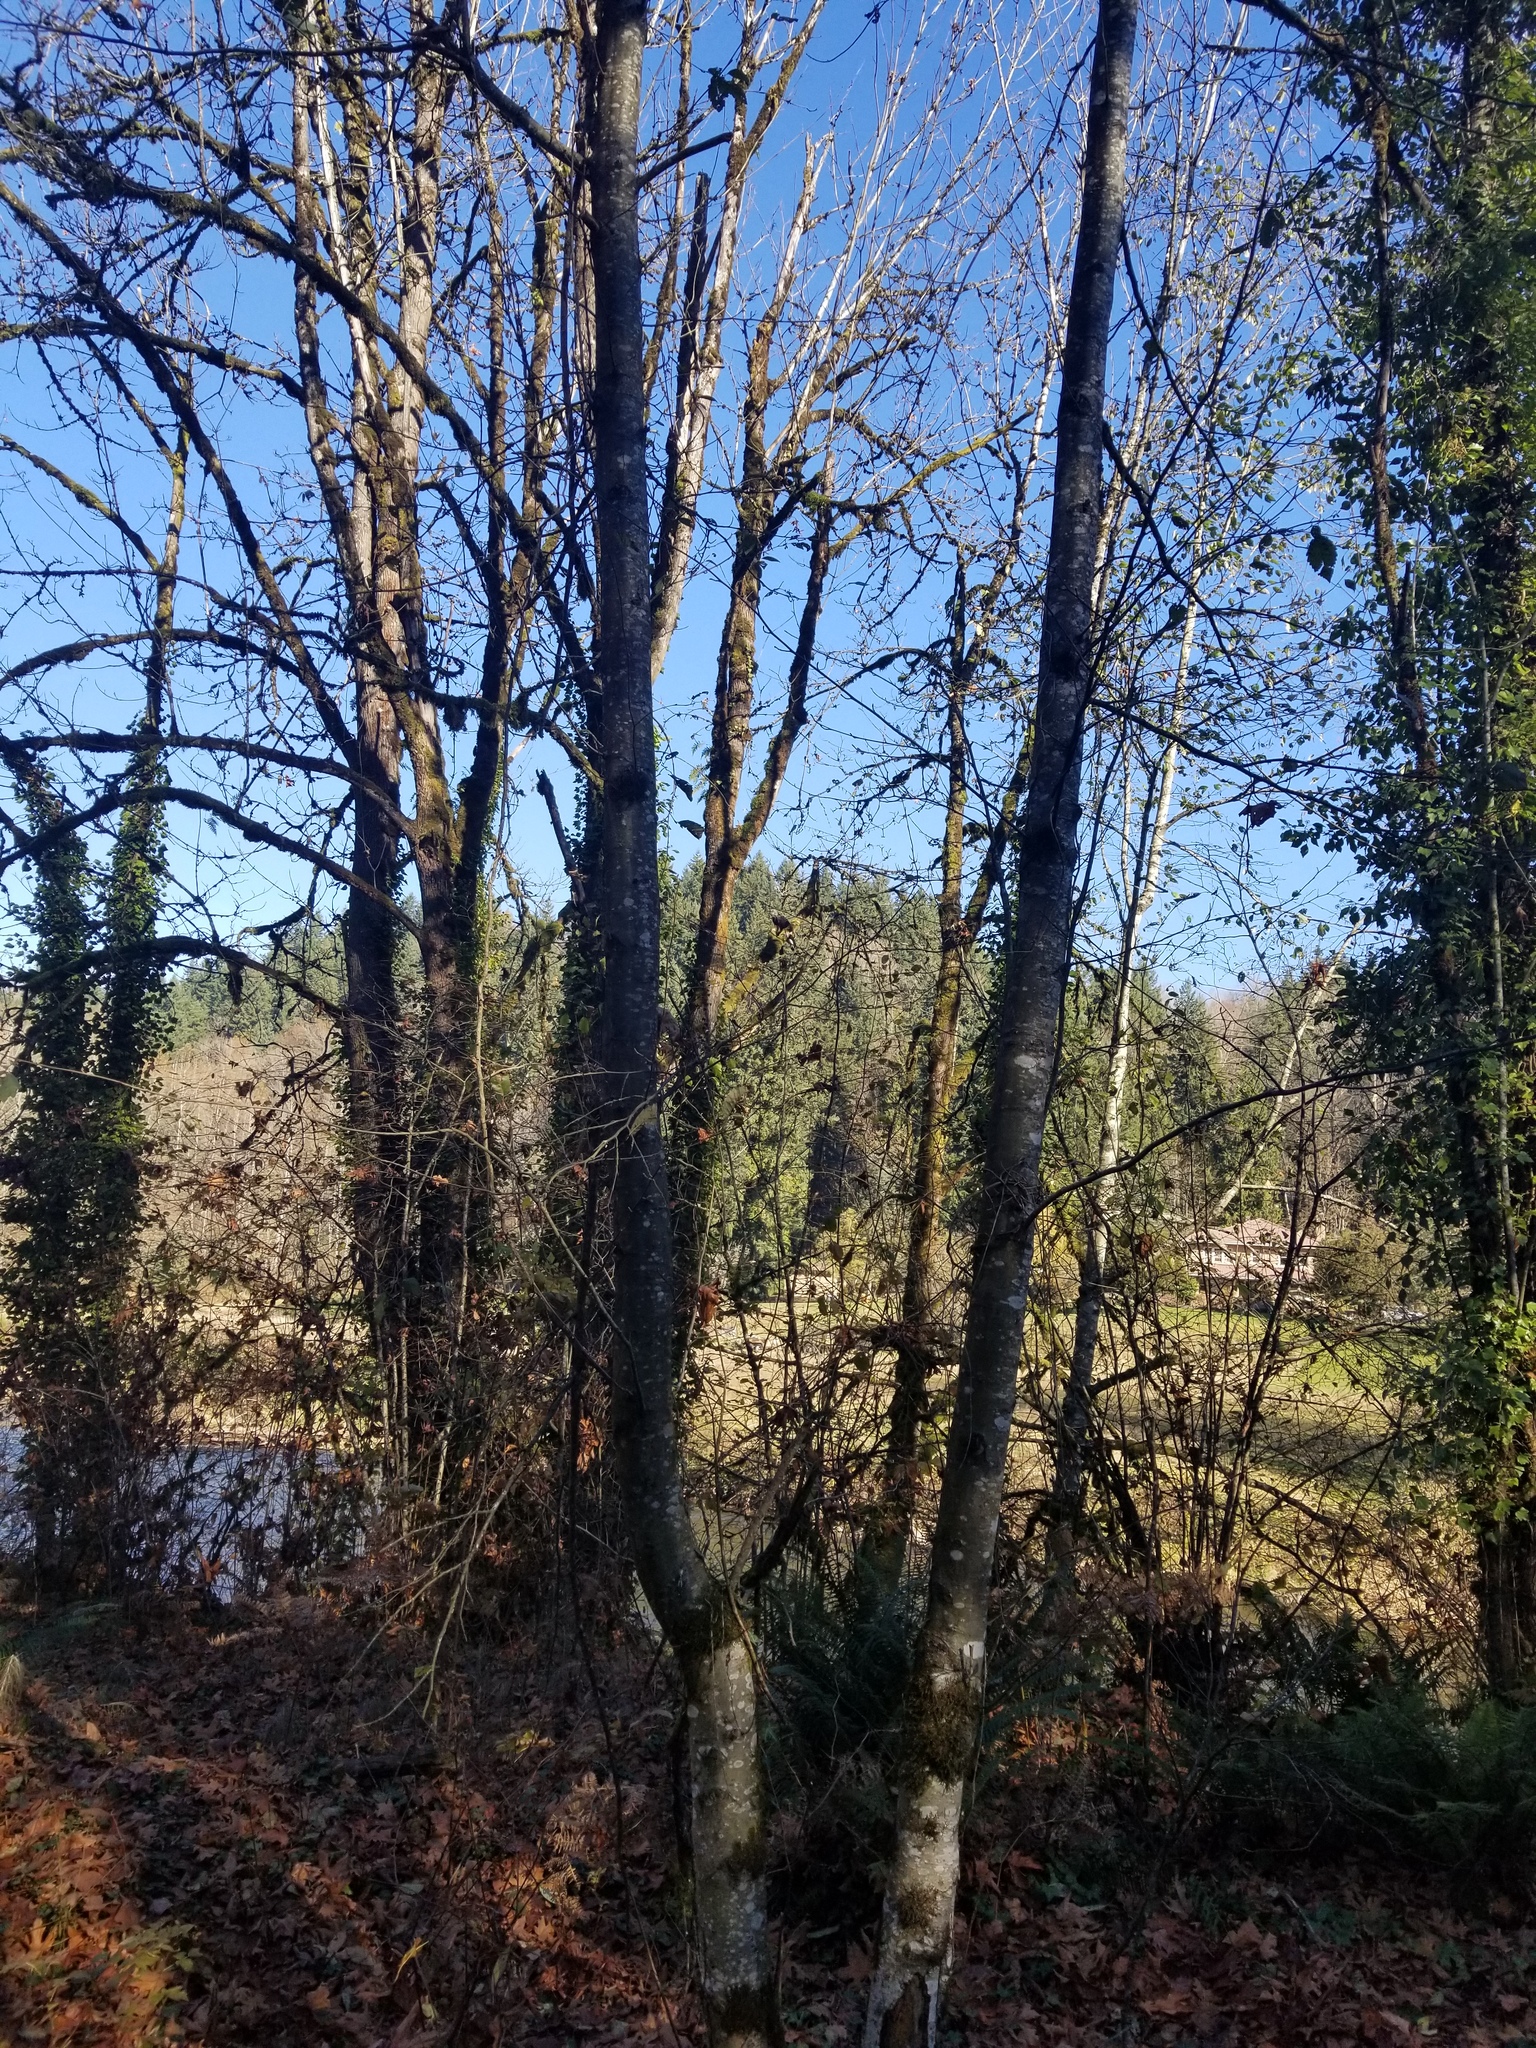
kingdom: Animalia
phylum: Chordata
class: Aves
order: Accipitriformes
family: Accipitridae
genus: Haliaeetus
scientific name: Haliaeetus leucocephalus
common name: Bald eagle
